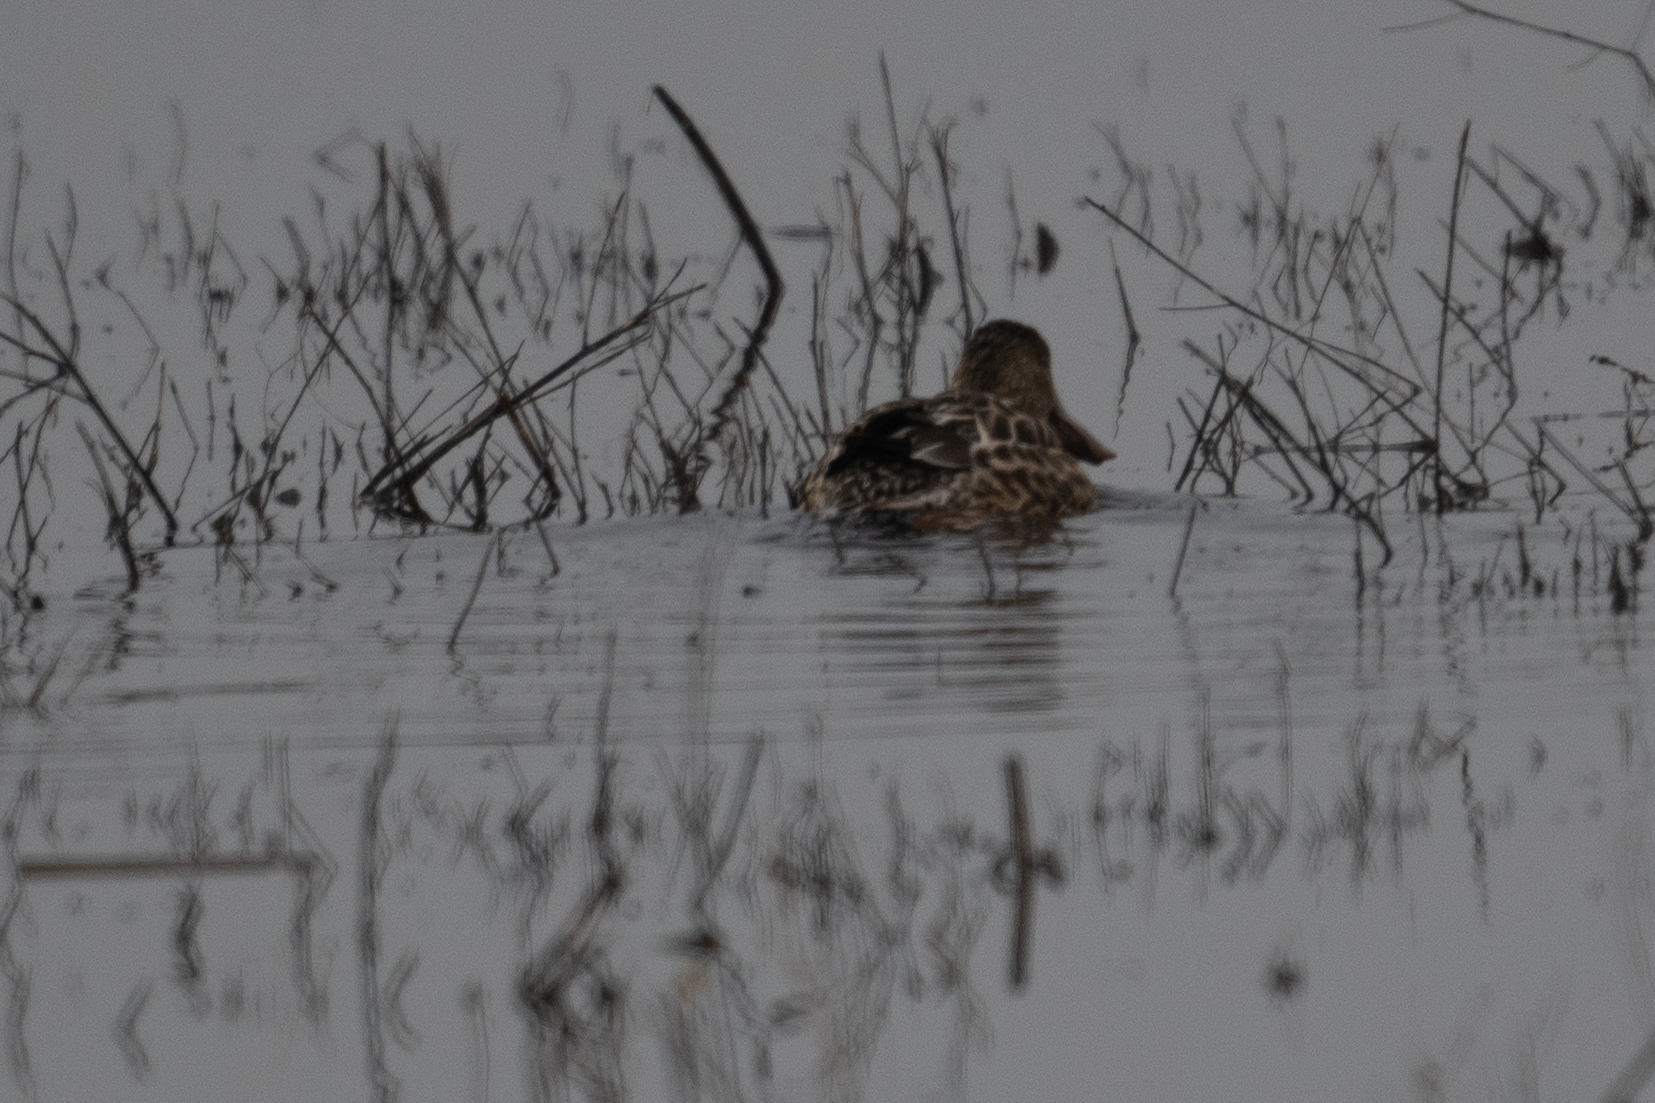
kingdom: Animalia
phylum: Chordata
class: Aves
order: Anseriformes
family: Anatidae
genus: Spatula
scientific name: Spatula clypeata
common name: Northern shoveler
